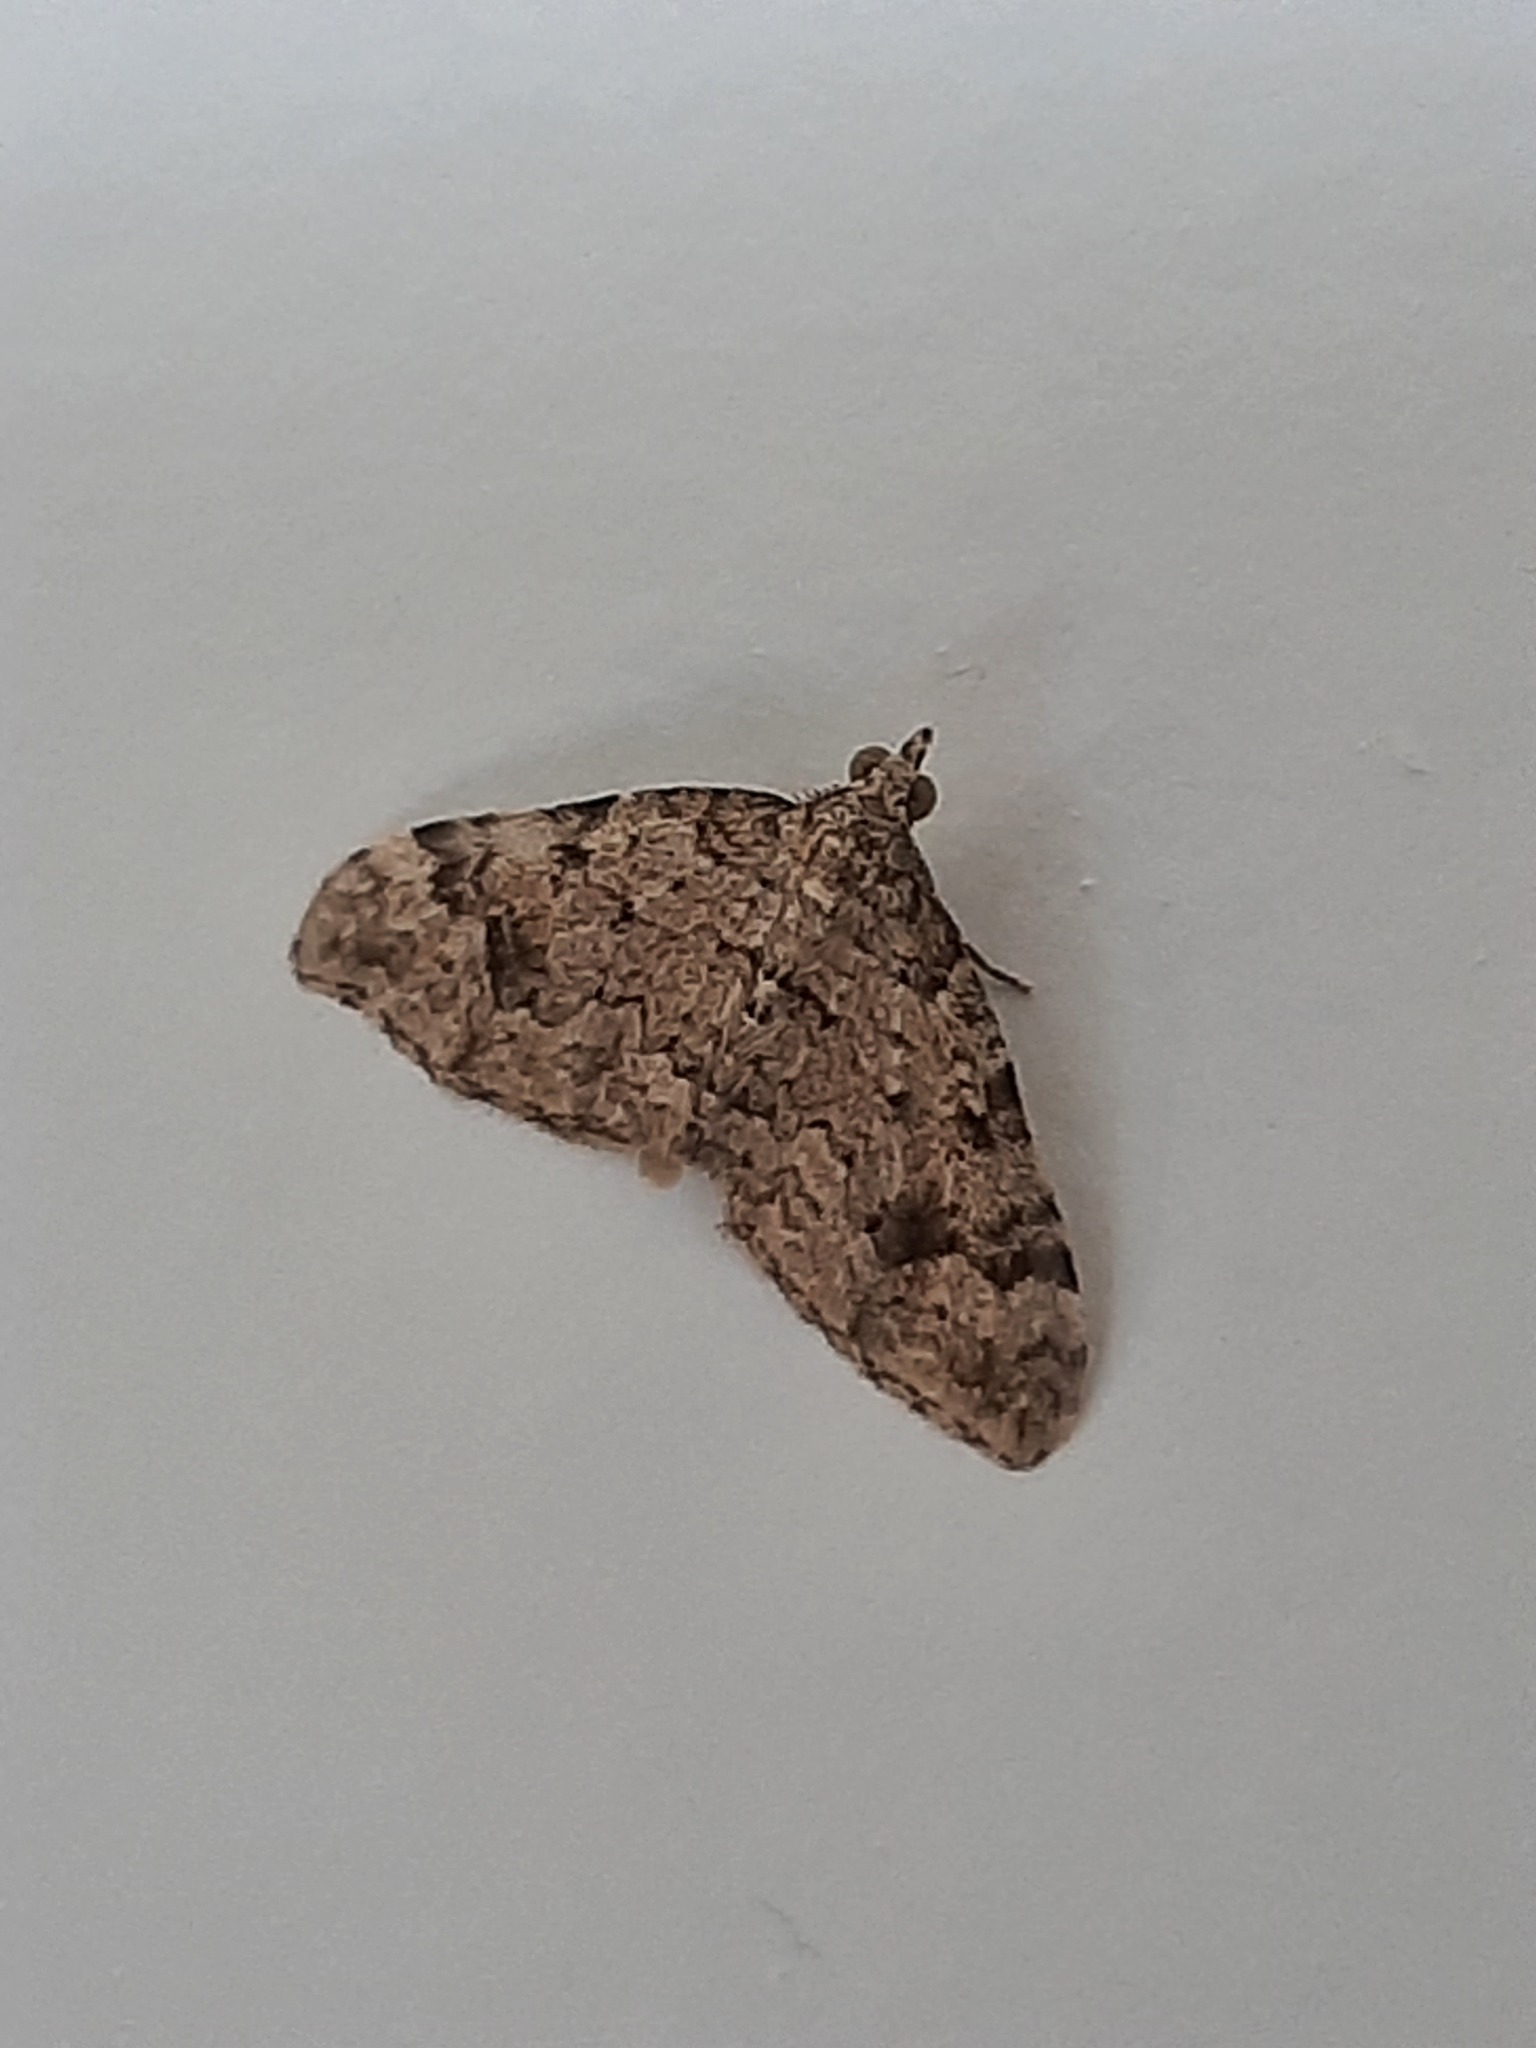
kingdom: Animalia
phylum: Arthropoda
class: Insecta
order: Lepidoptera
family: Geometridae
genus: Helastia
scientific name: Helastia cinerearia
